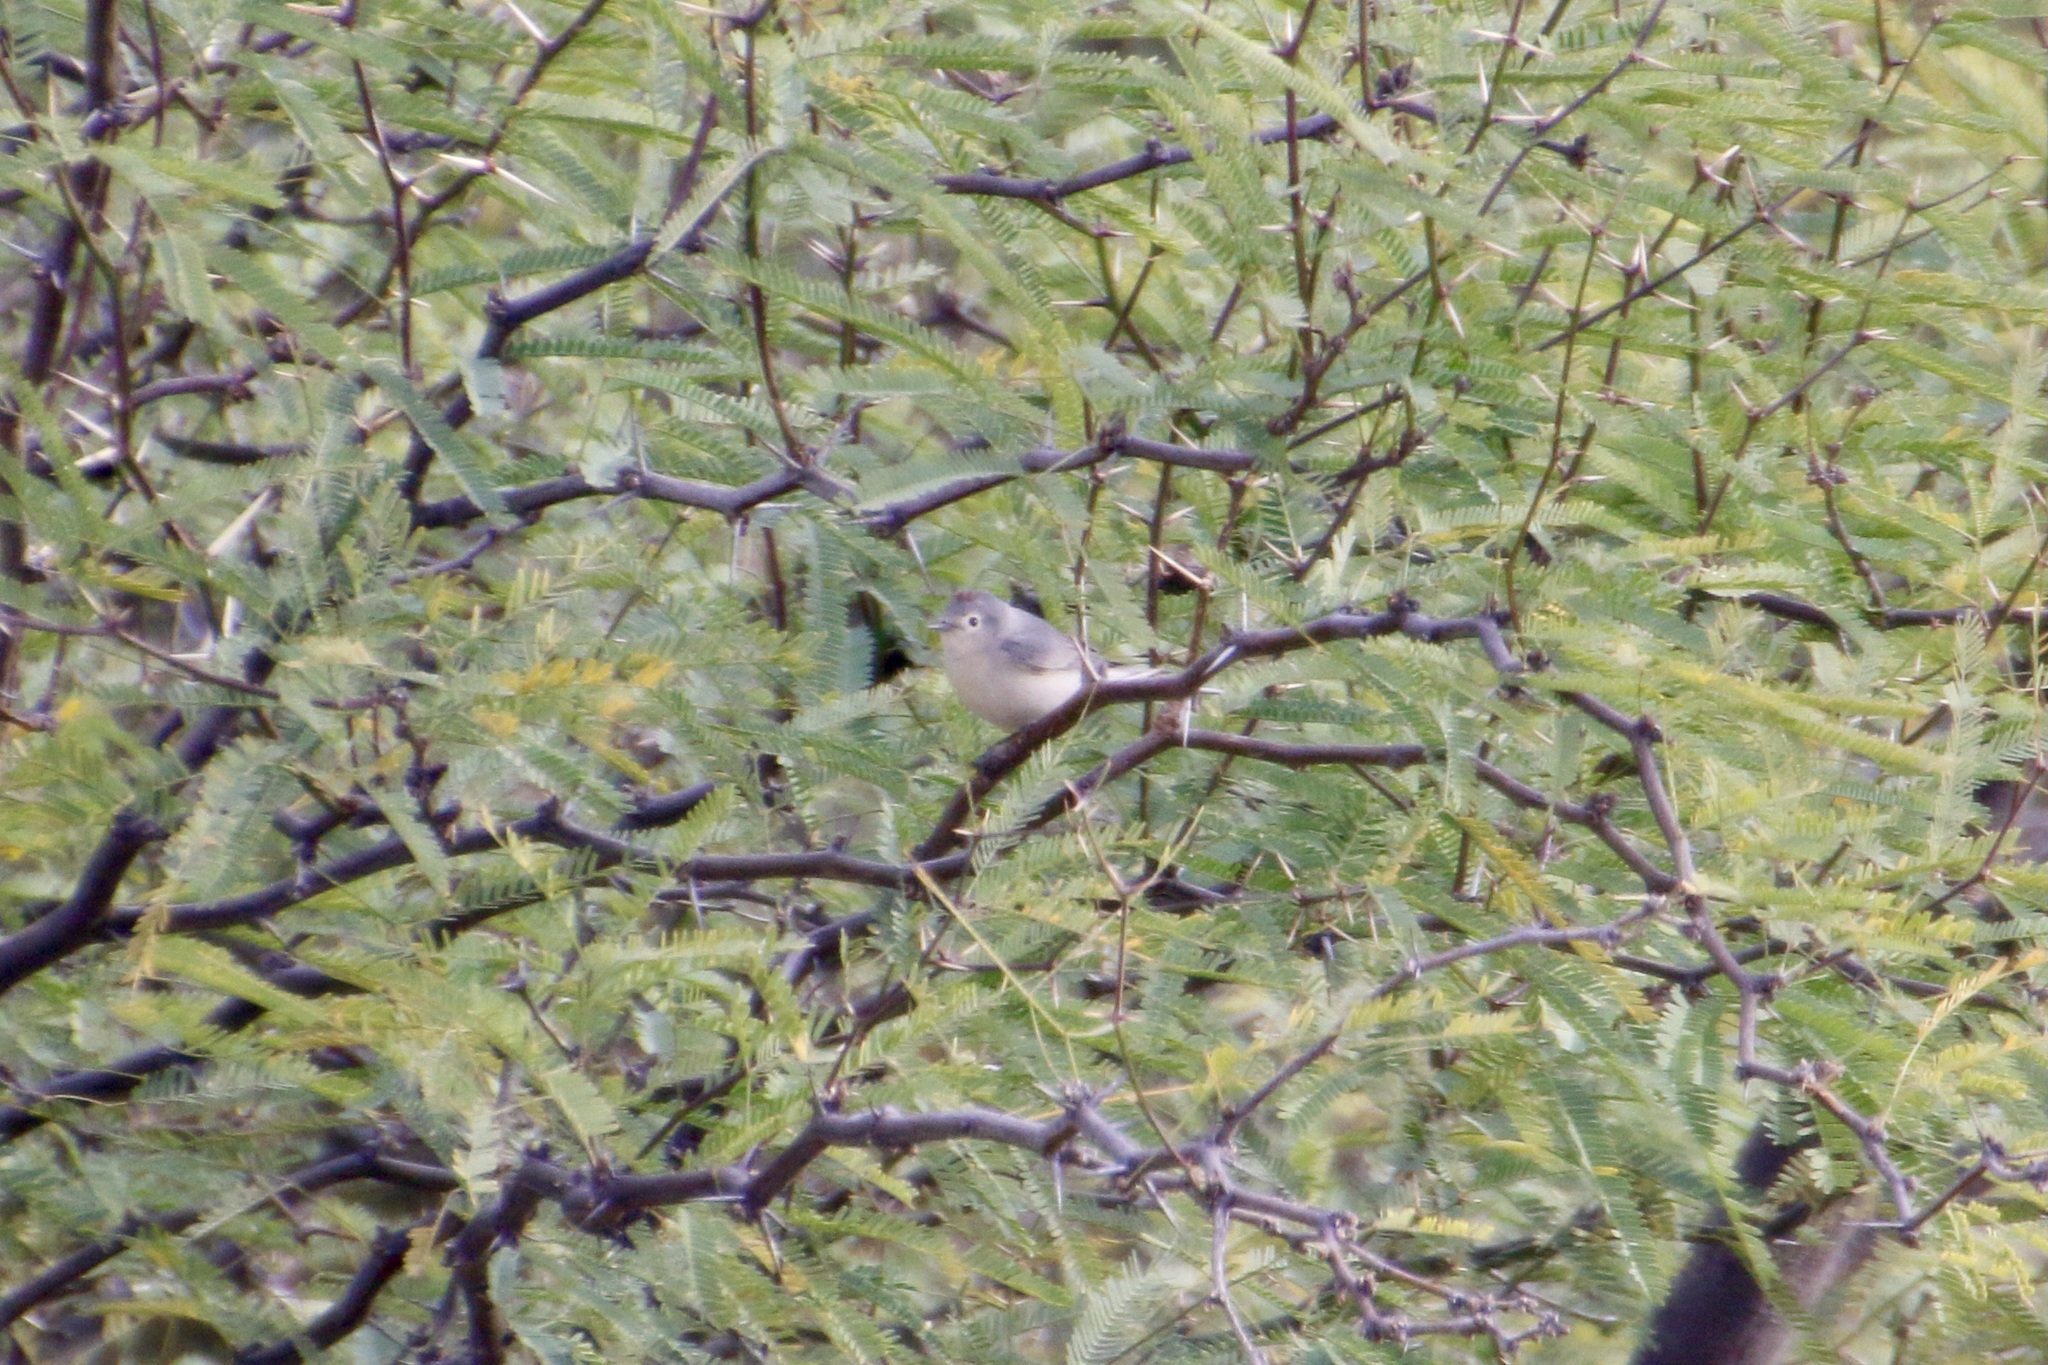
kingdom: Animalia
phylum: Chordata
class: Aves
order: Passeriformes
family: Parulidae
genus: Leiothlypis
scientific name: Leiothlypis luciae
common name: Lucy's warbler
